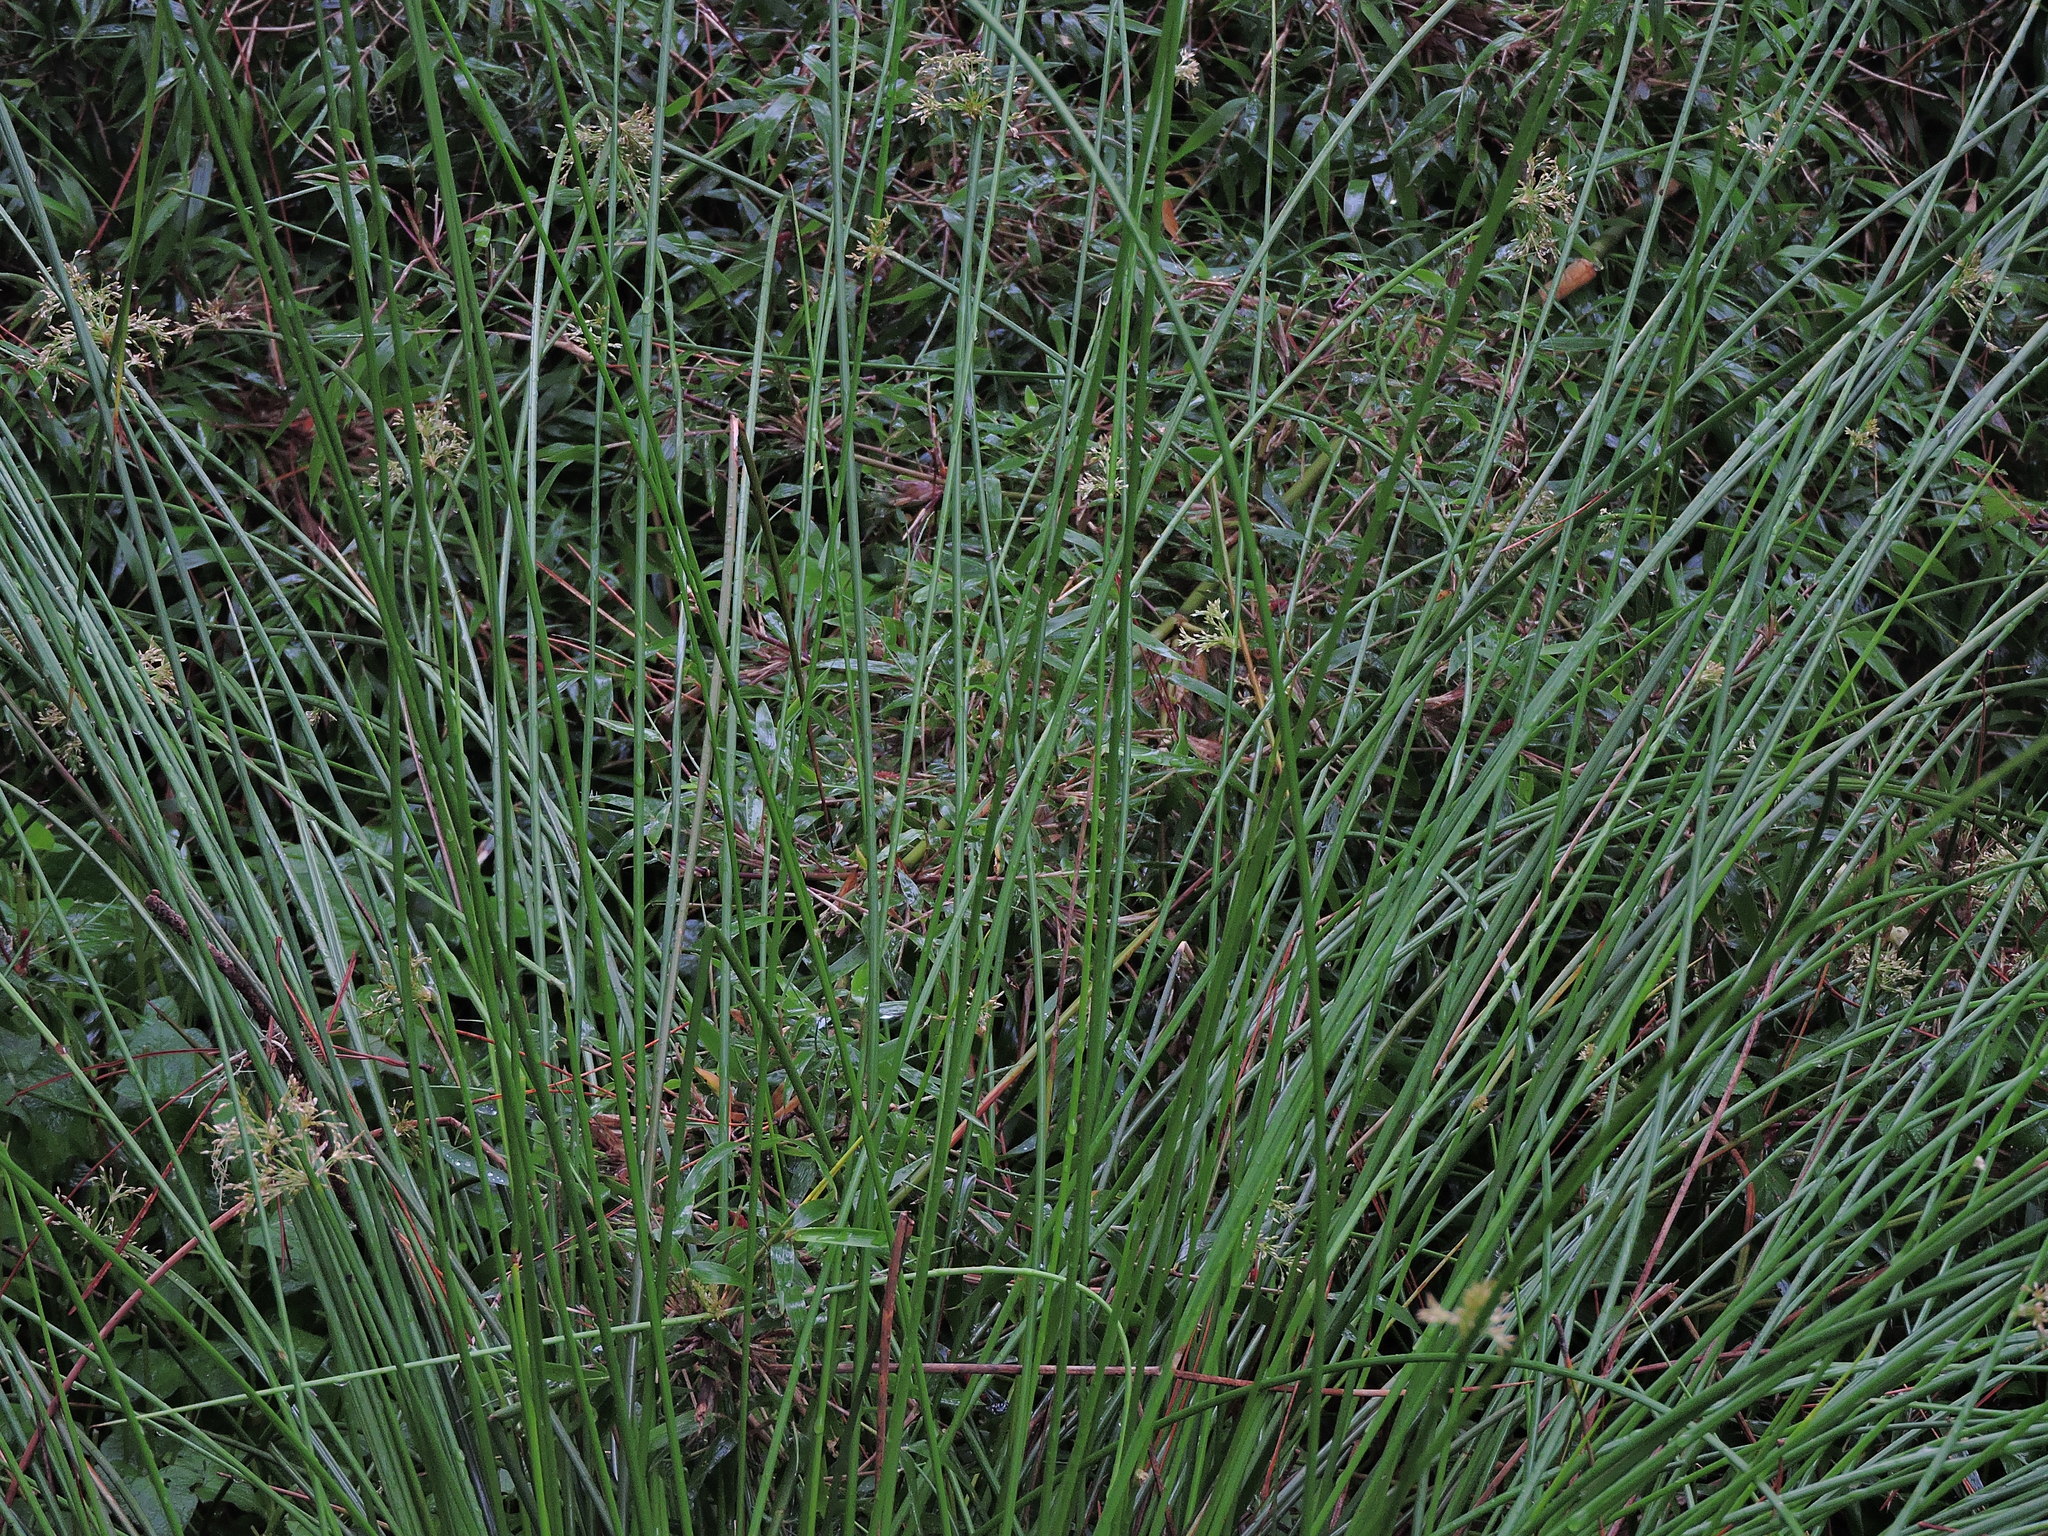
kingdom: Plantae
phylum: Tracheophyta
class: Liliopsida
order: Poales
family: Juncaceae
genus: Juncus
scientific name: Juncus decipiens
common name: Lamp rush
